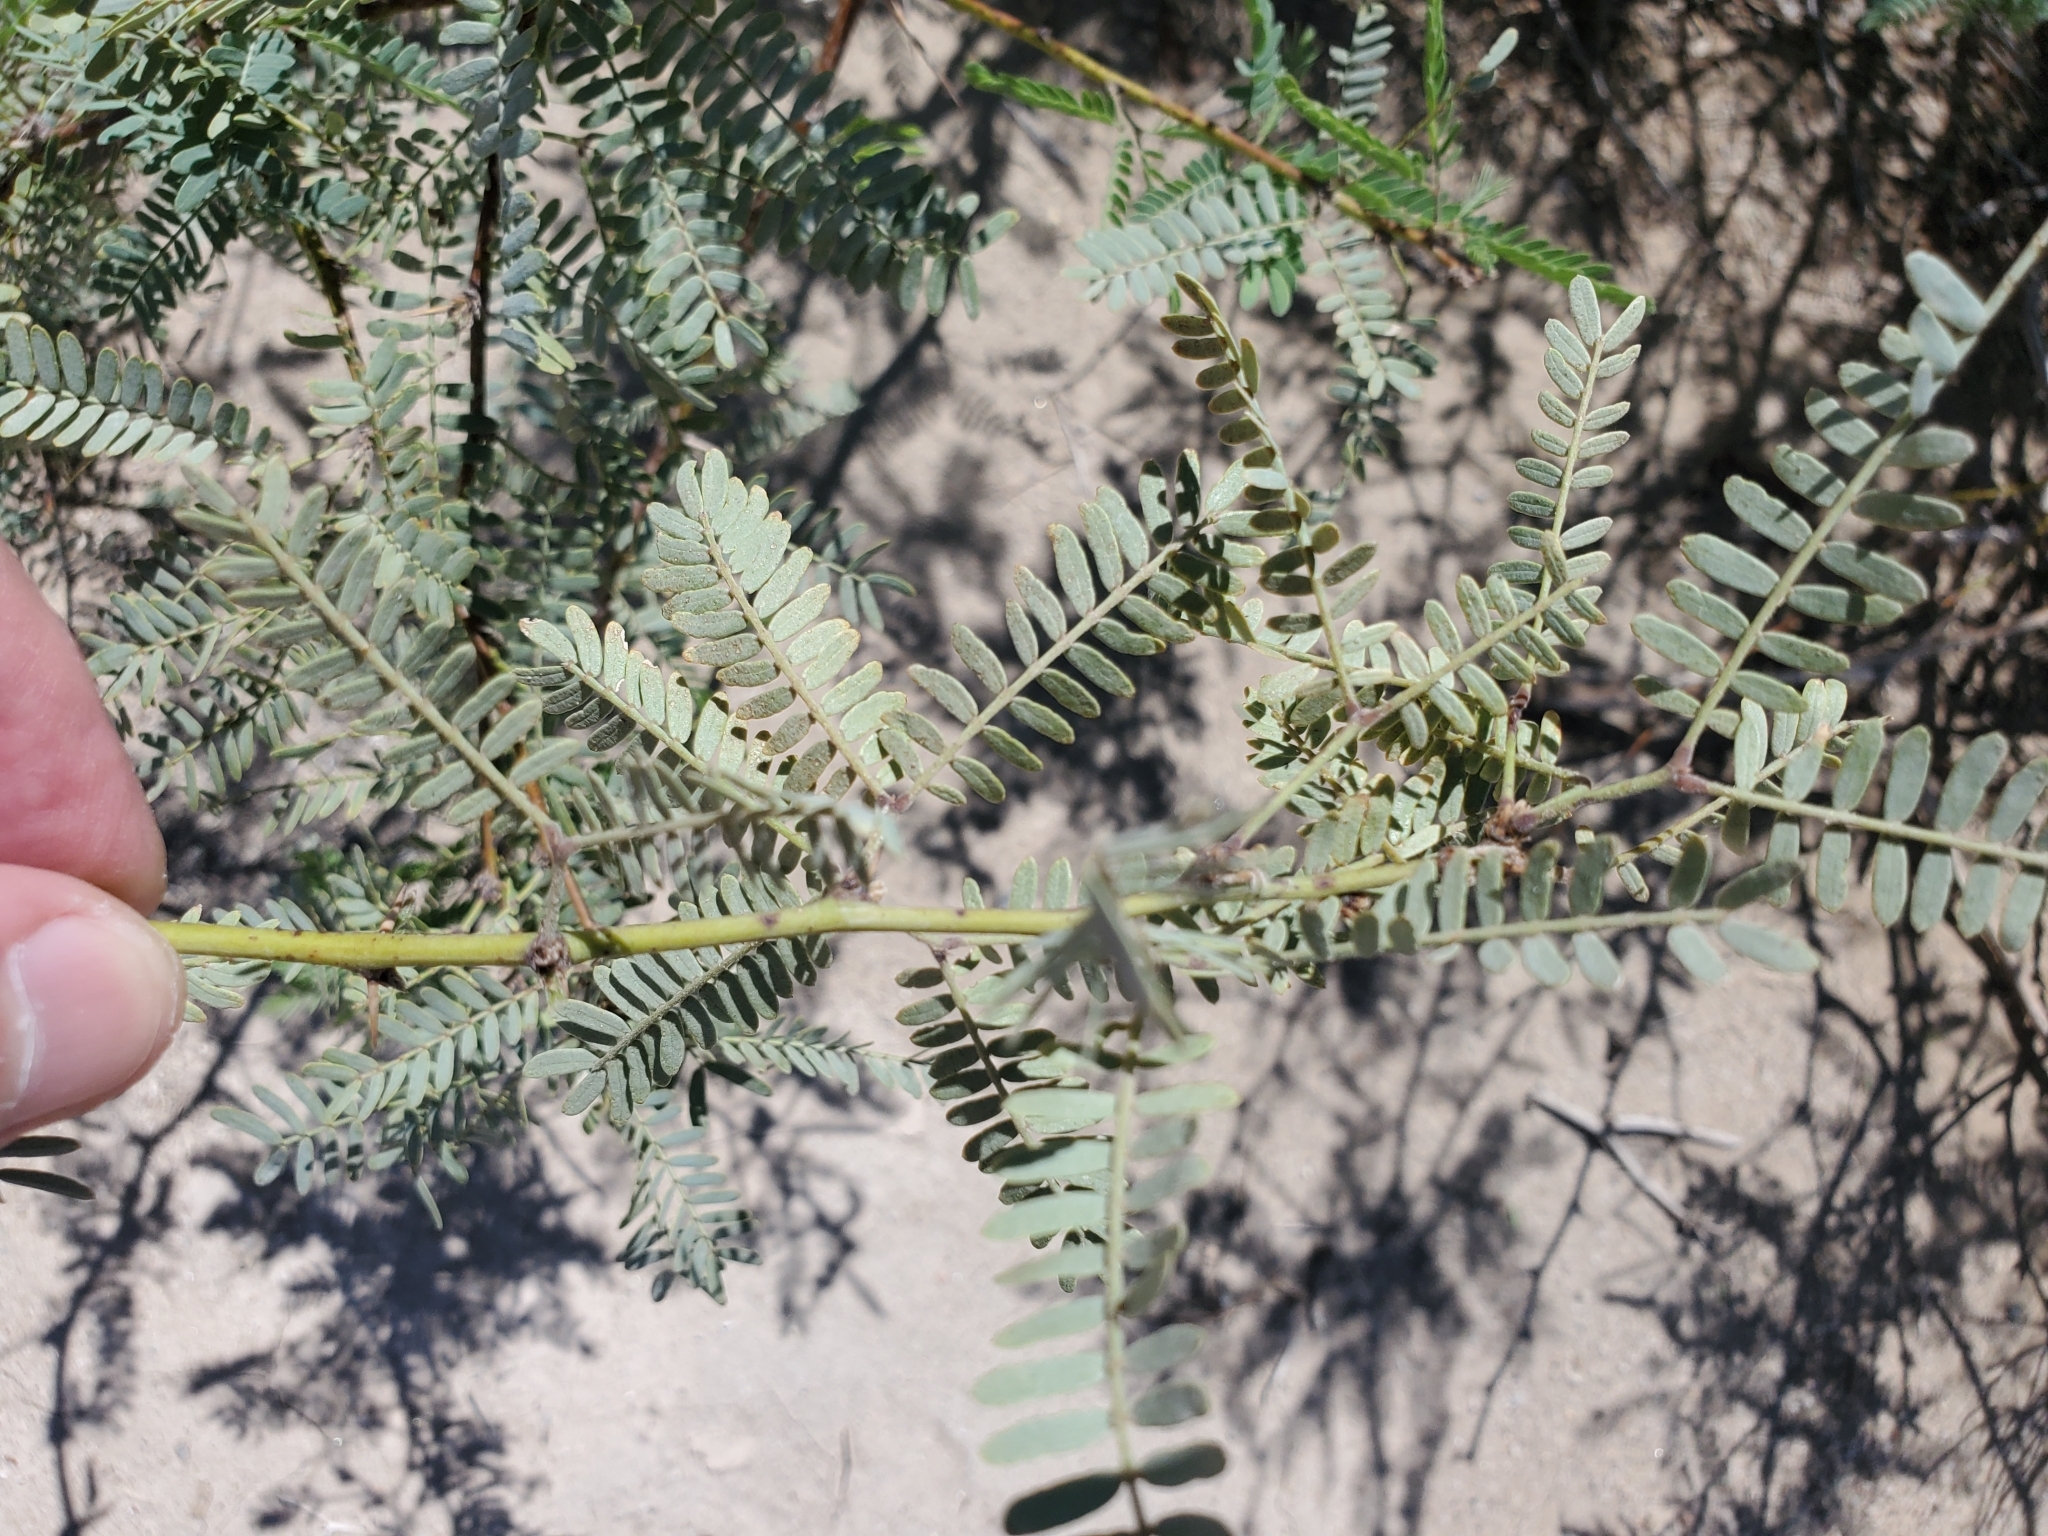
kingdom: Plantae
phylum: Tracheophyta
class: Magnoliopsida
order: Fabales
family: Fabaceae
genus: Prosopis
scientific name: Prosopis pubescens
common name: Screw-bean
